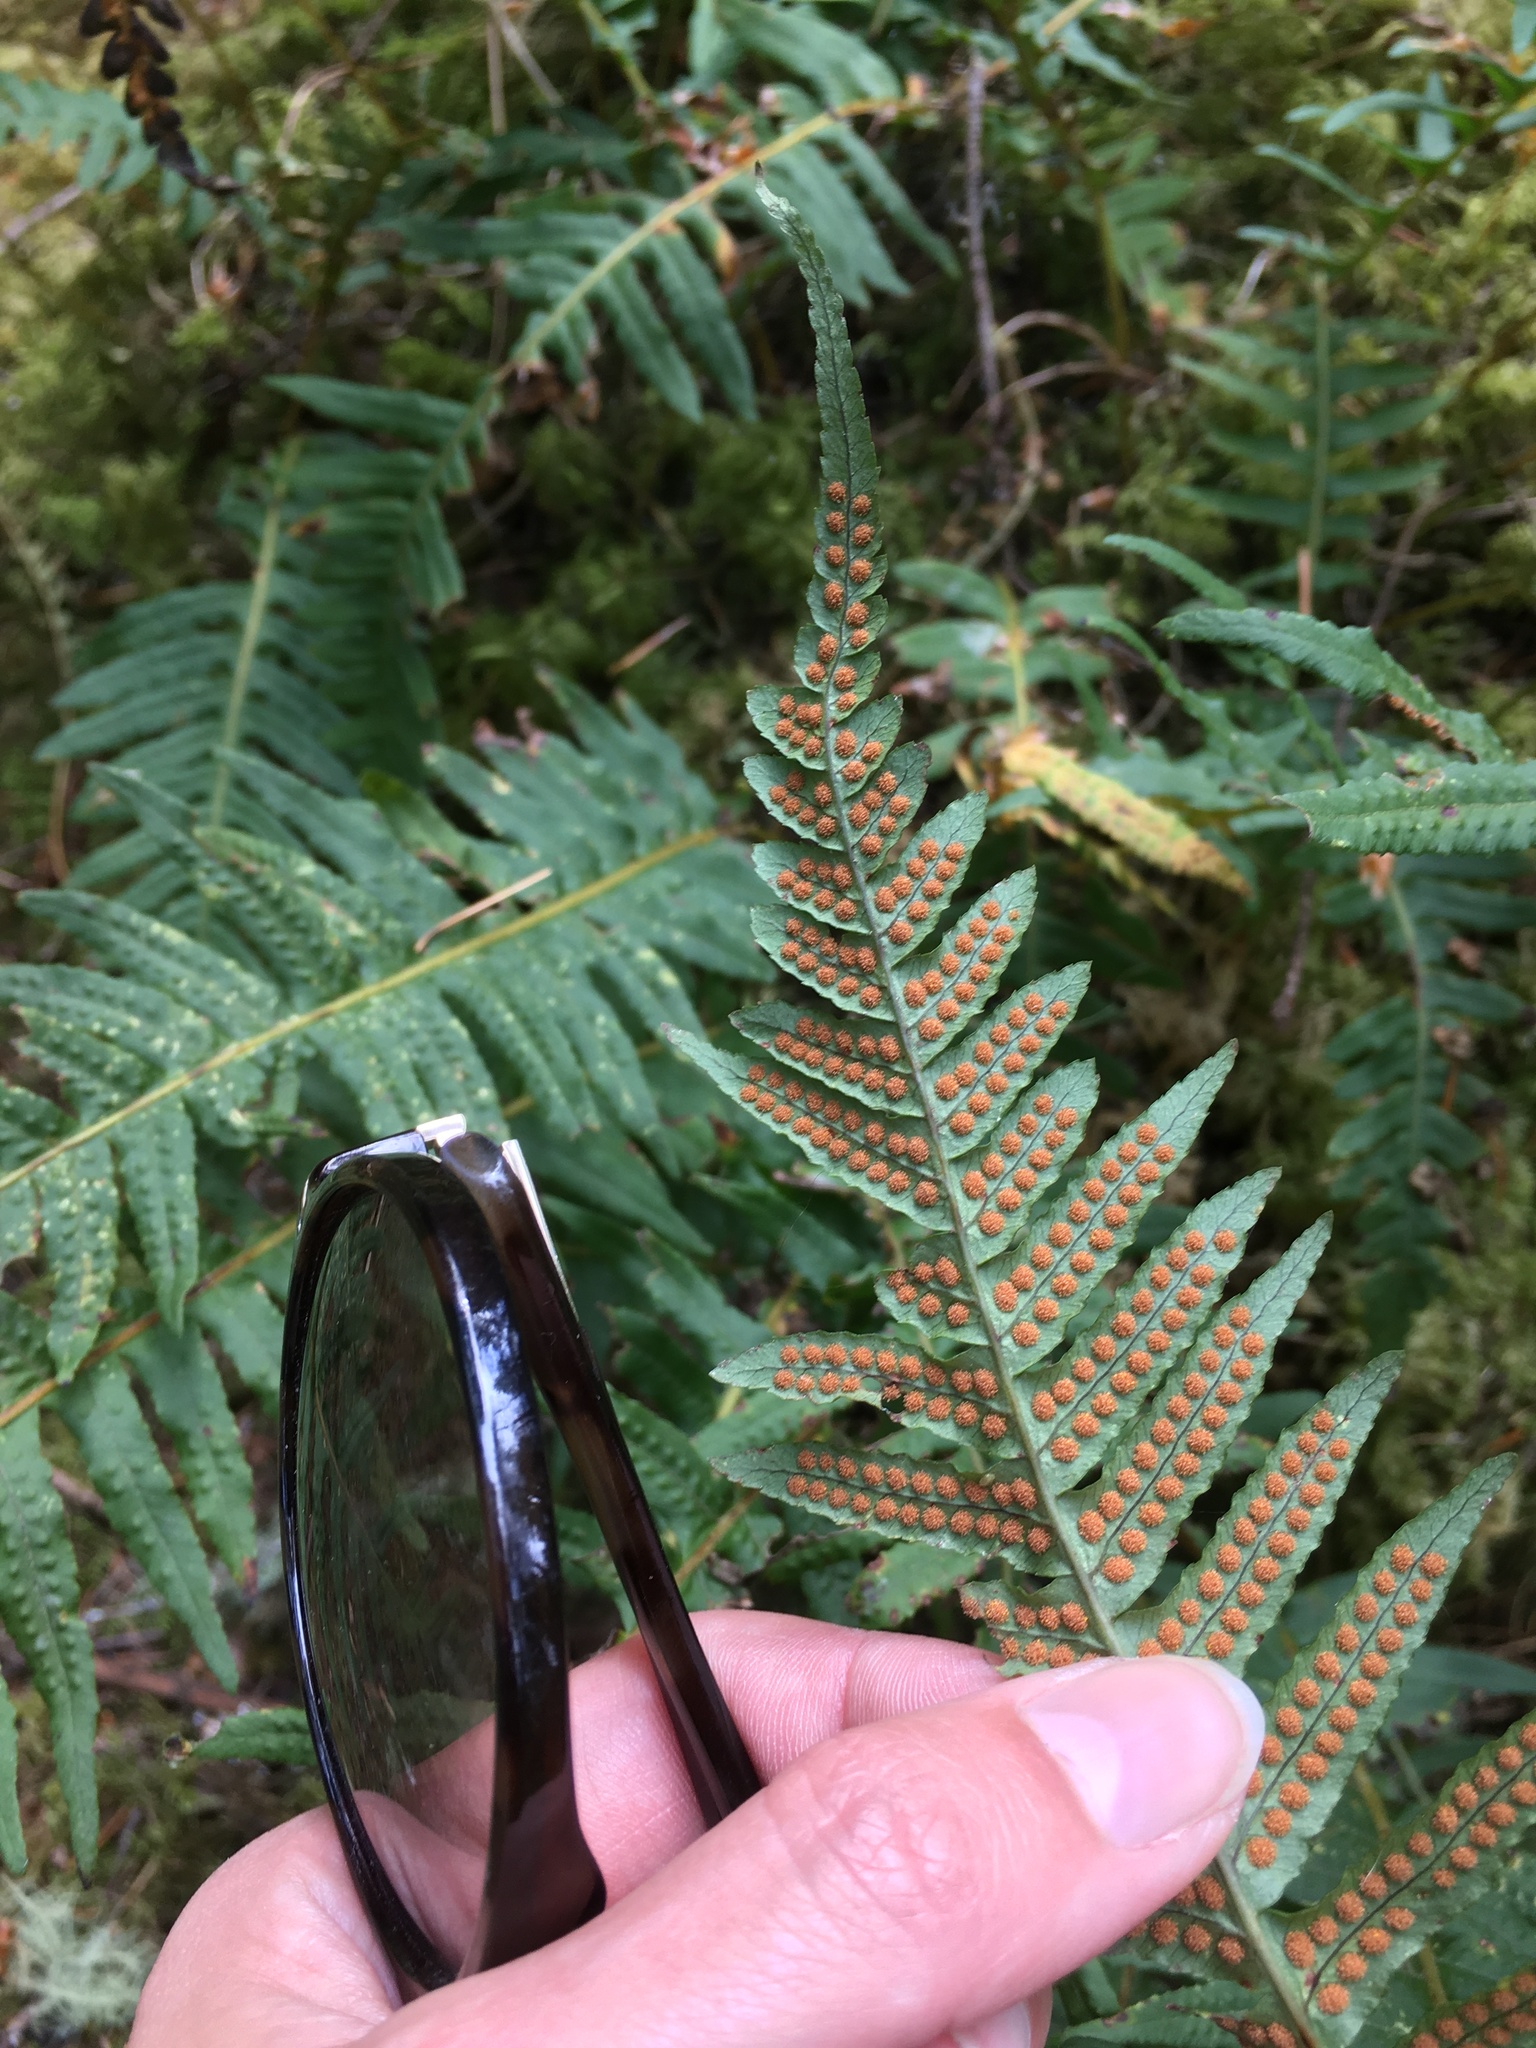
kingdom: Plantae
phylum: Tracheophyta
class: Polypodiopsida
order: Polypodiales
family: Polypodiaceae
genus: Polypodium
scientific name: Polypodium glycyrrhiza
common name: Licorice fern
